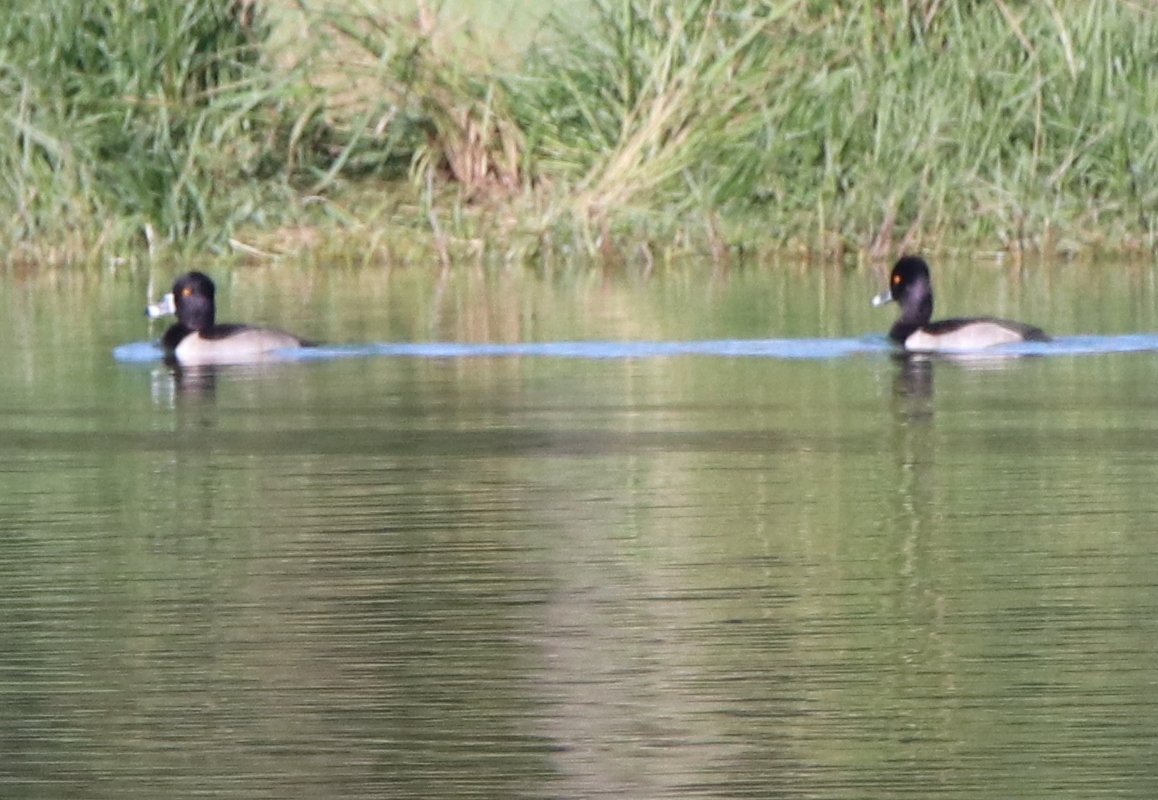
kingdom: Animalia
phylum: Chordata
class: Aves
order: Anseriformes
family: Anatidae
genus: Aythya
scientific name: Aythya collaris
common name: Ring-necked duck
